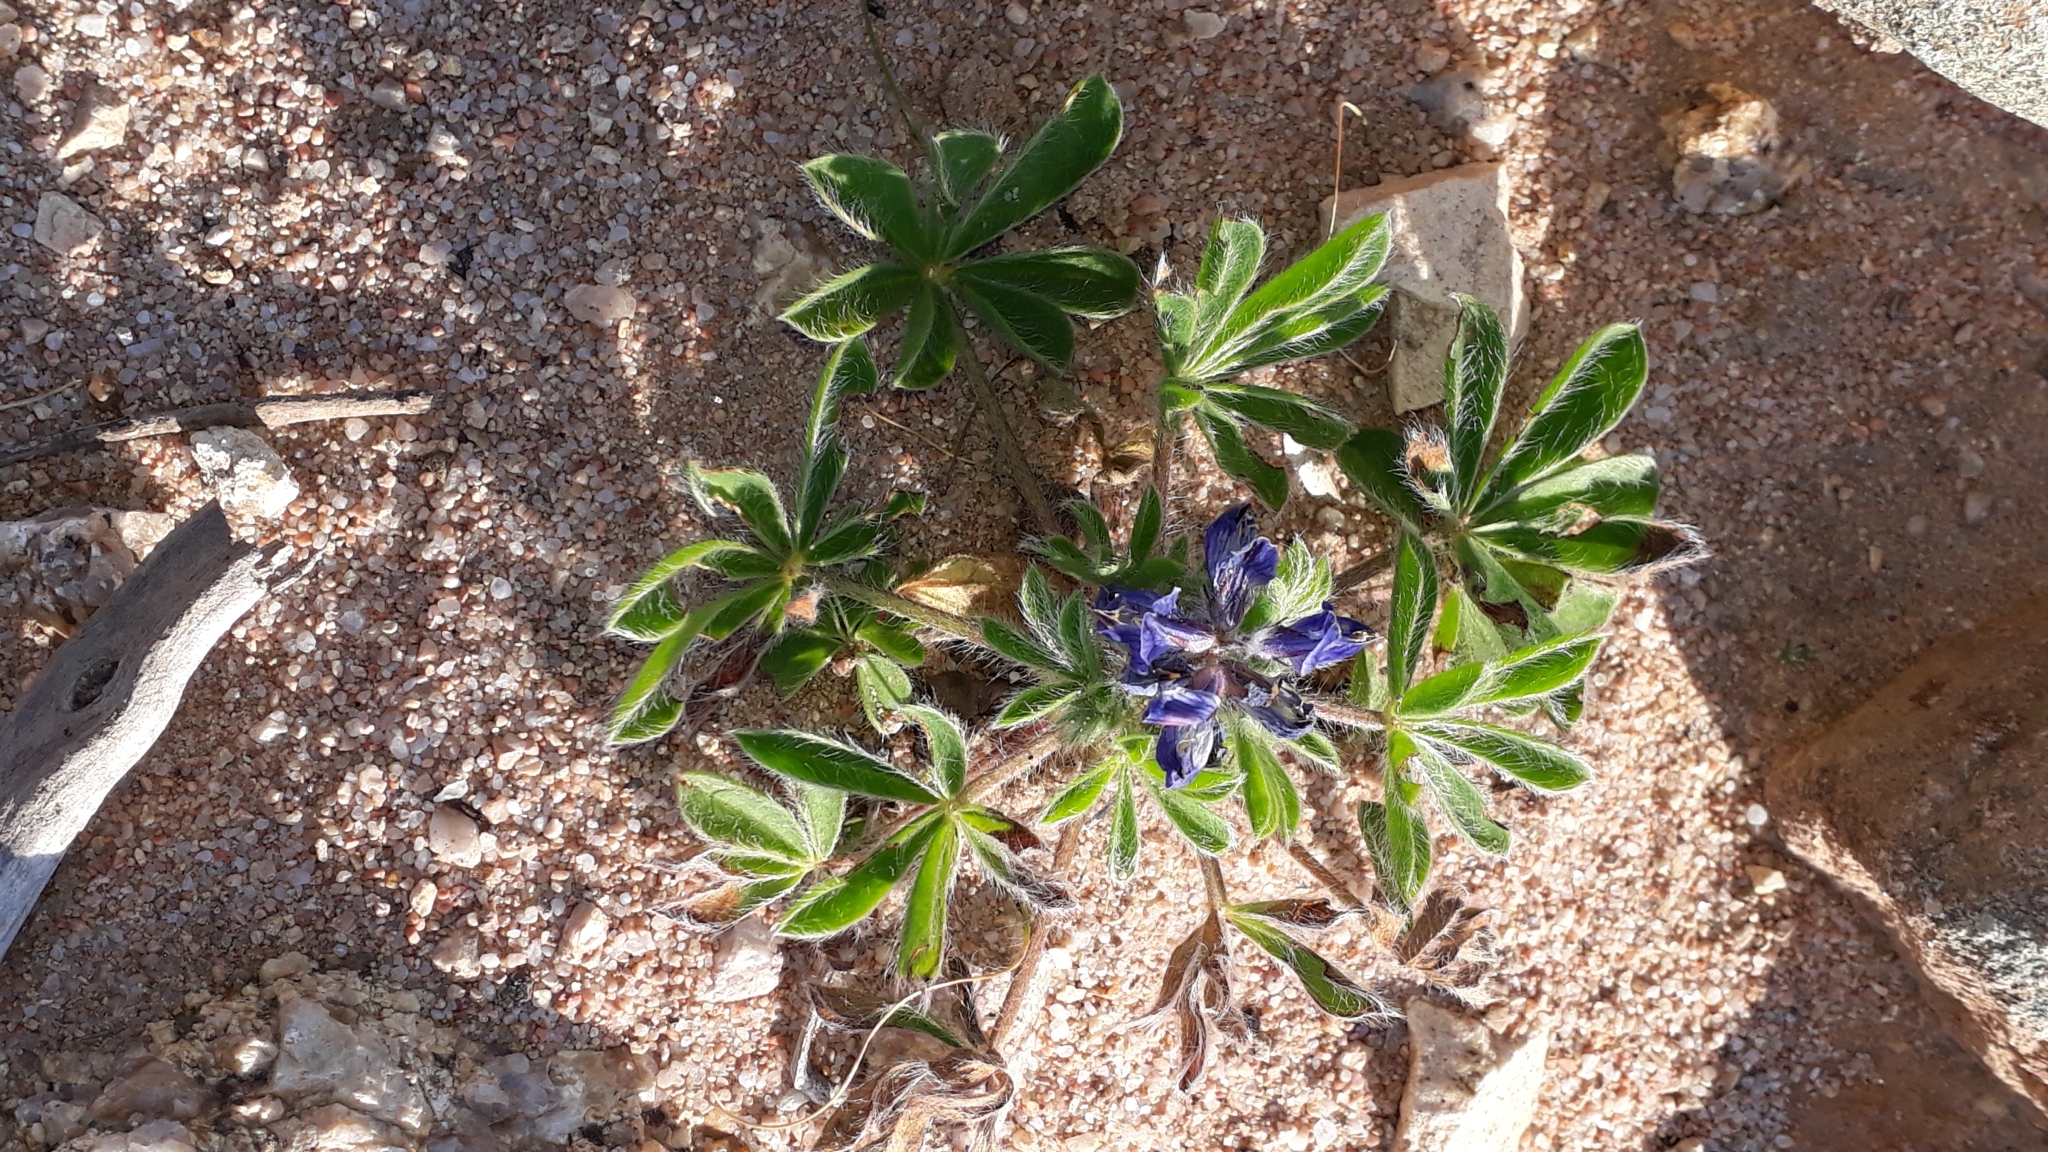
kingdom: Plantae
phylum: Tracheophyta
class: Magnoliopsida
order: Fabales
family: Fabaceae
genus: Lupinus
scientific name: Lupinus gussoneanus
